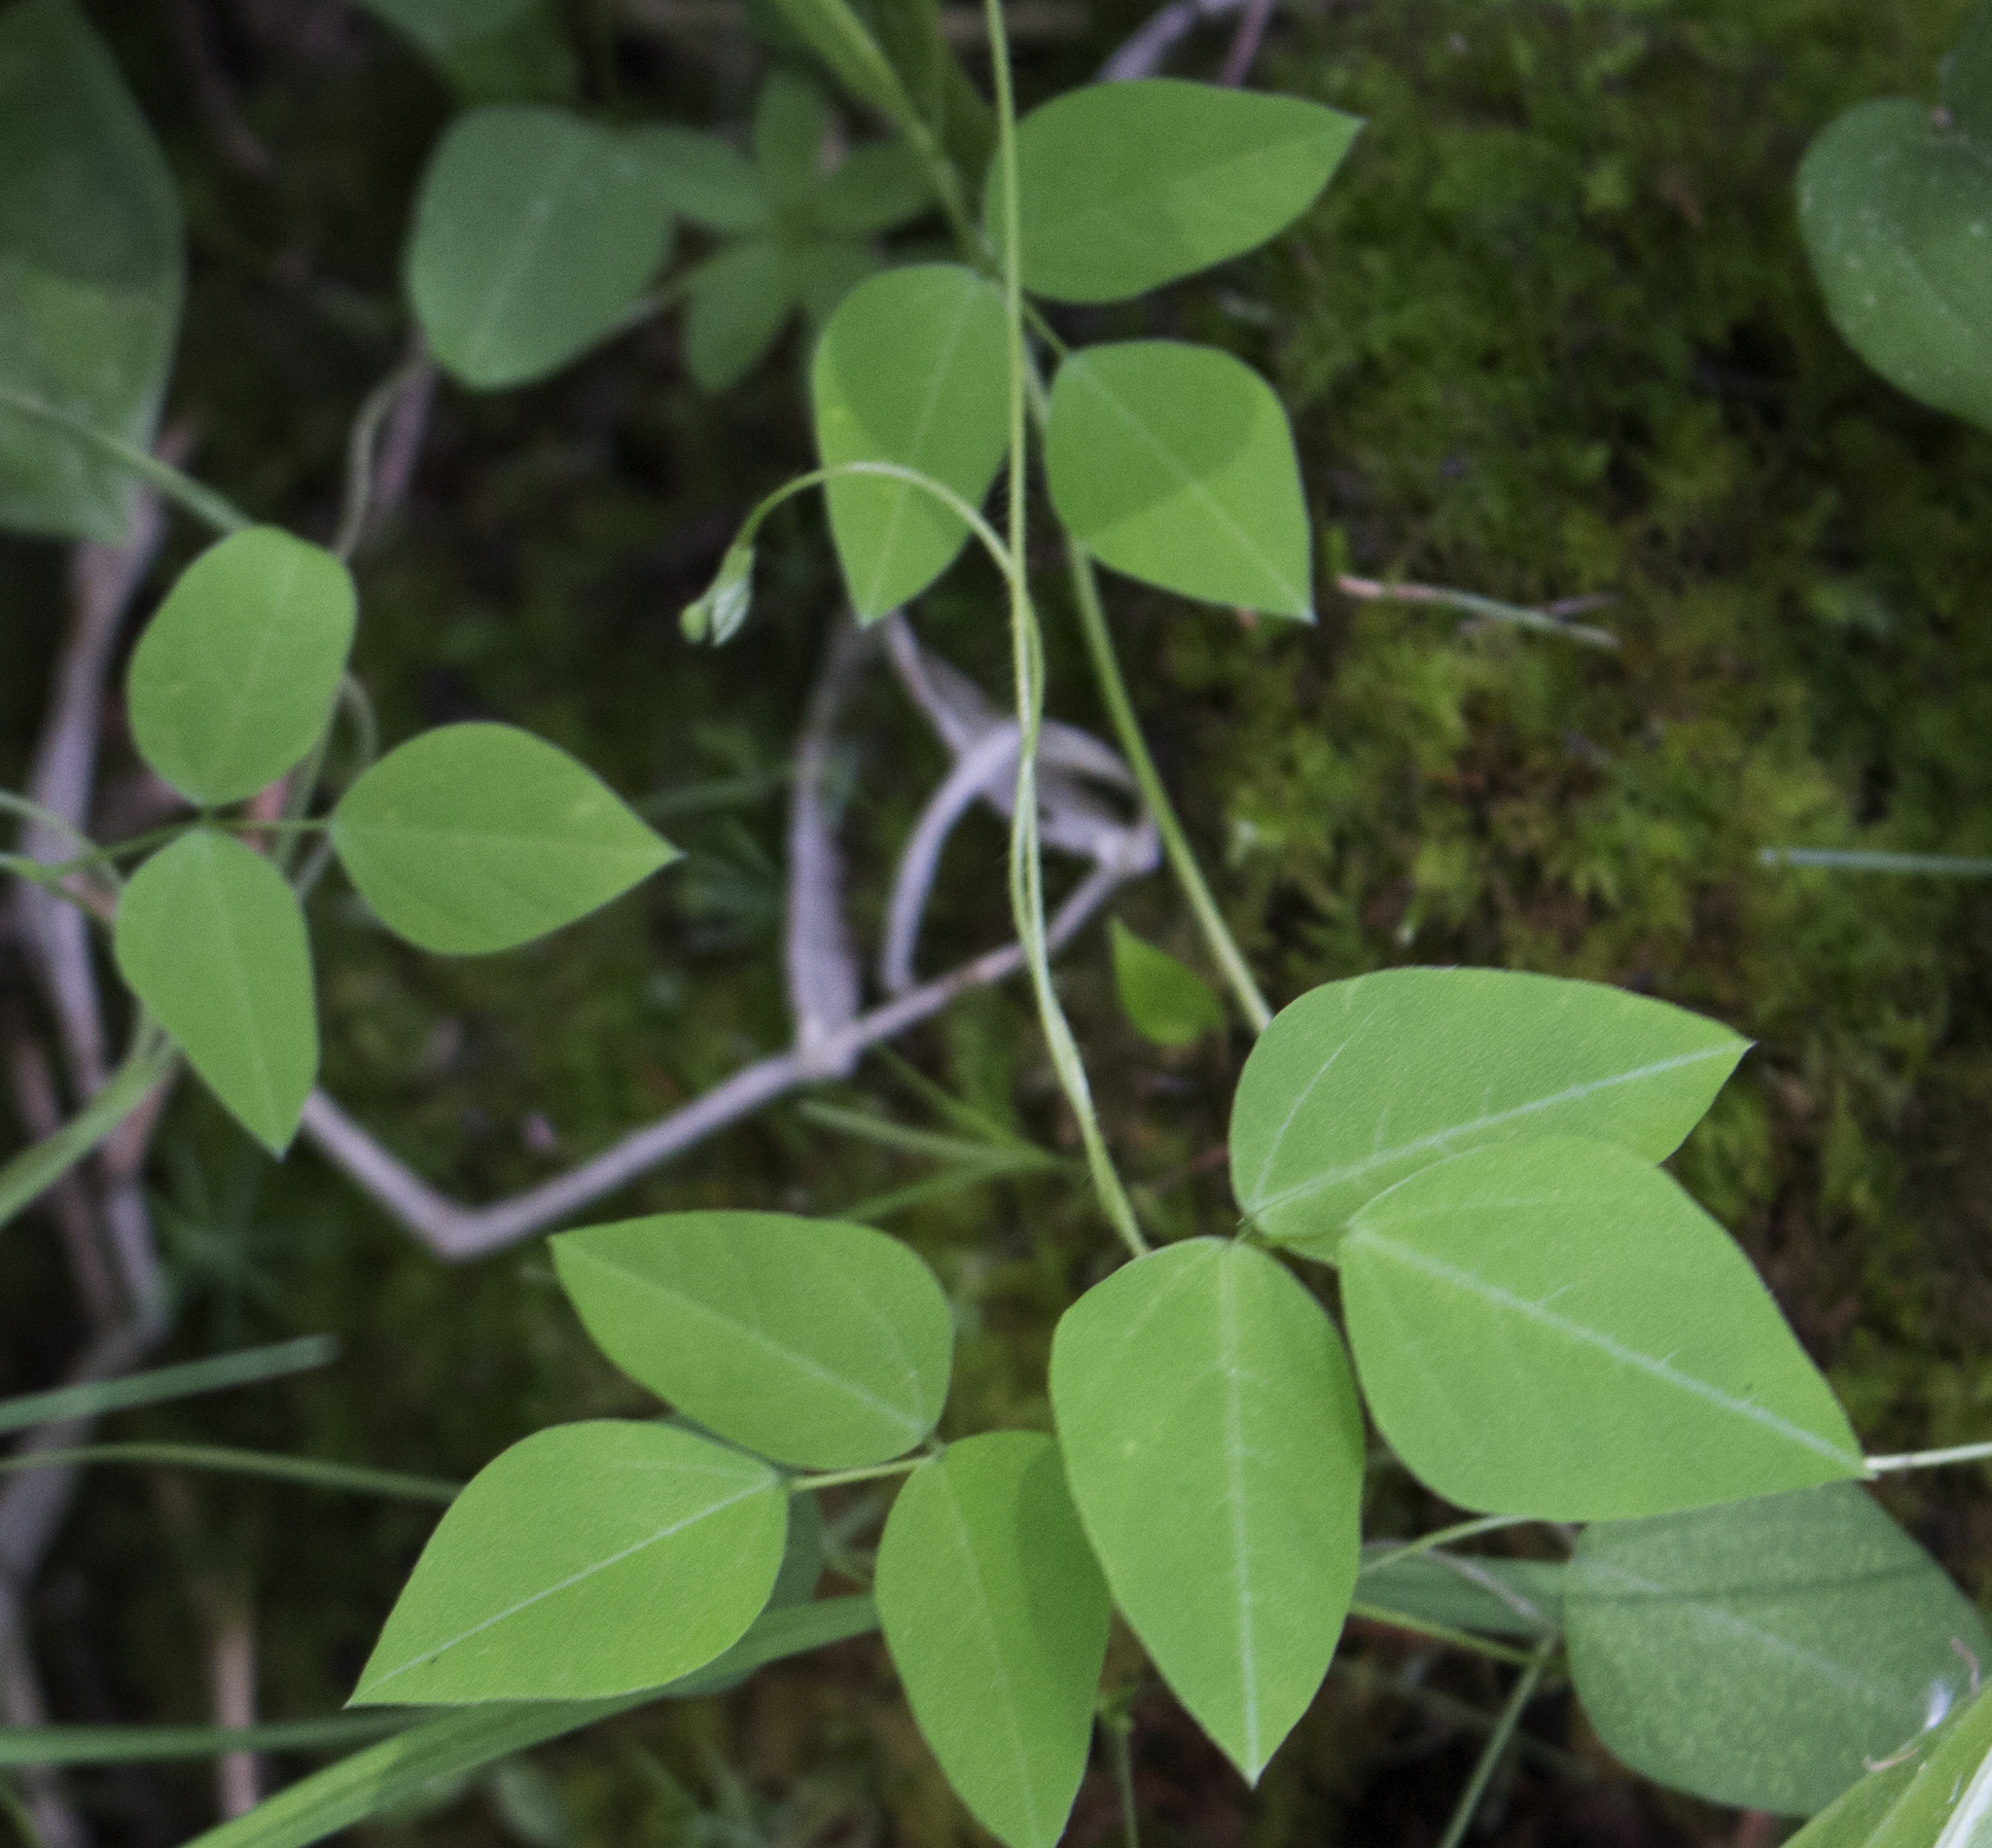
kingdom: Plantae
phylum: Tracheophyta
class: Magnoliopsida
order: Fabales
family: Fabaceae
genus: Amphicarpaea
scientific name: Amphicarpaea bracteata
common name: American hog peanut
